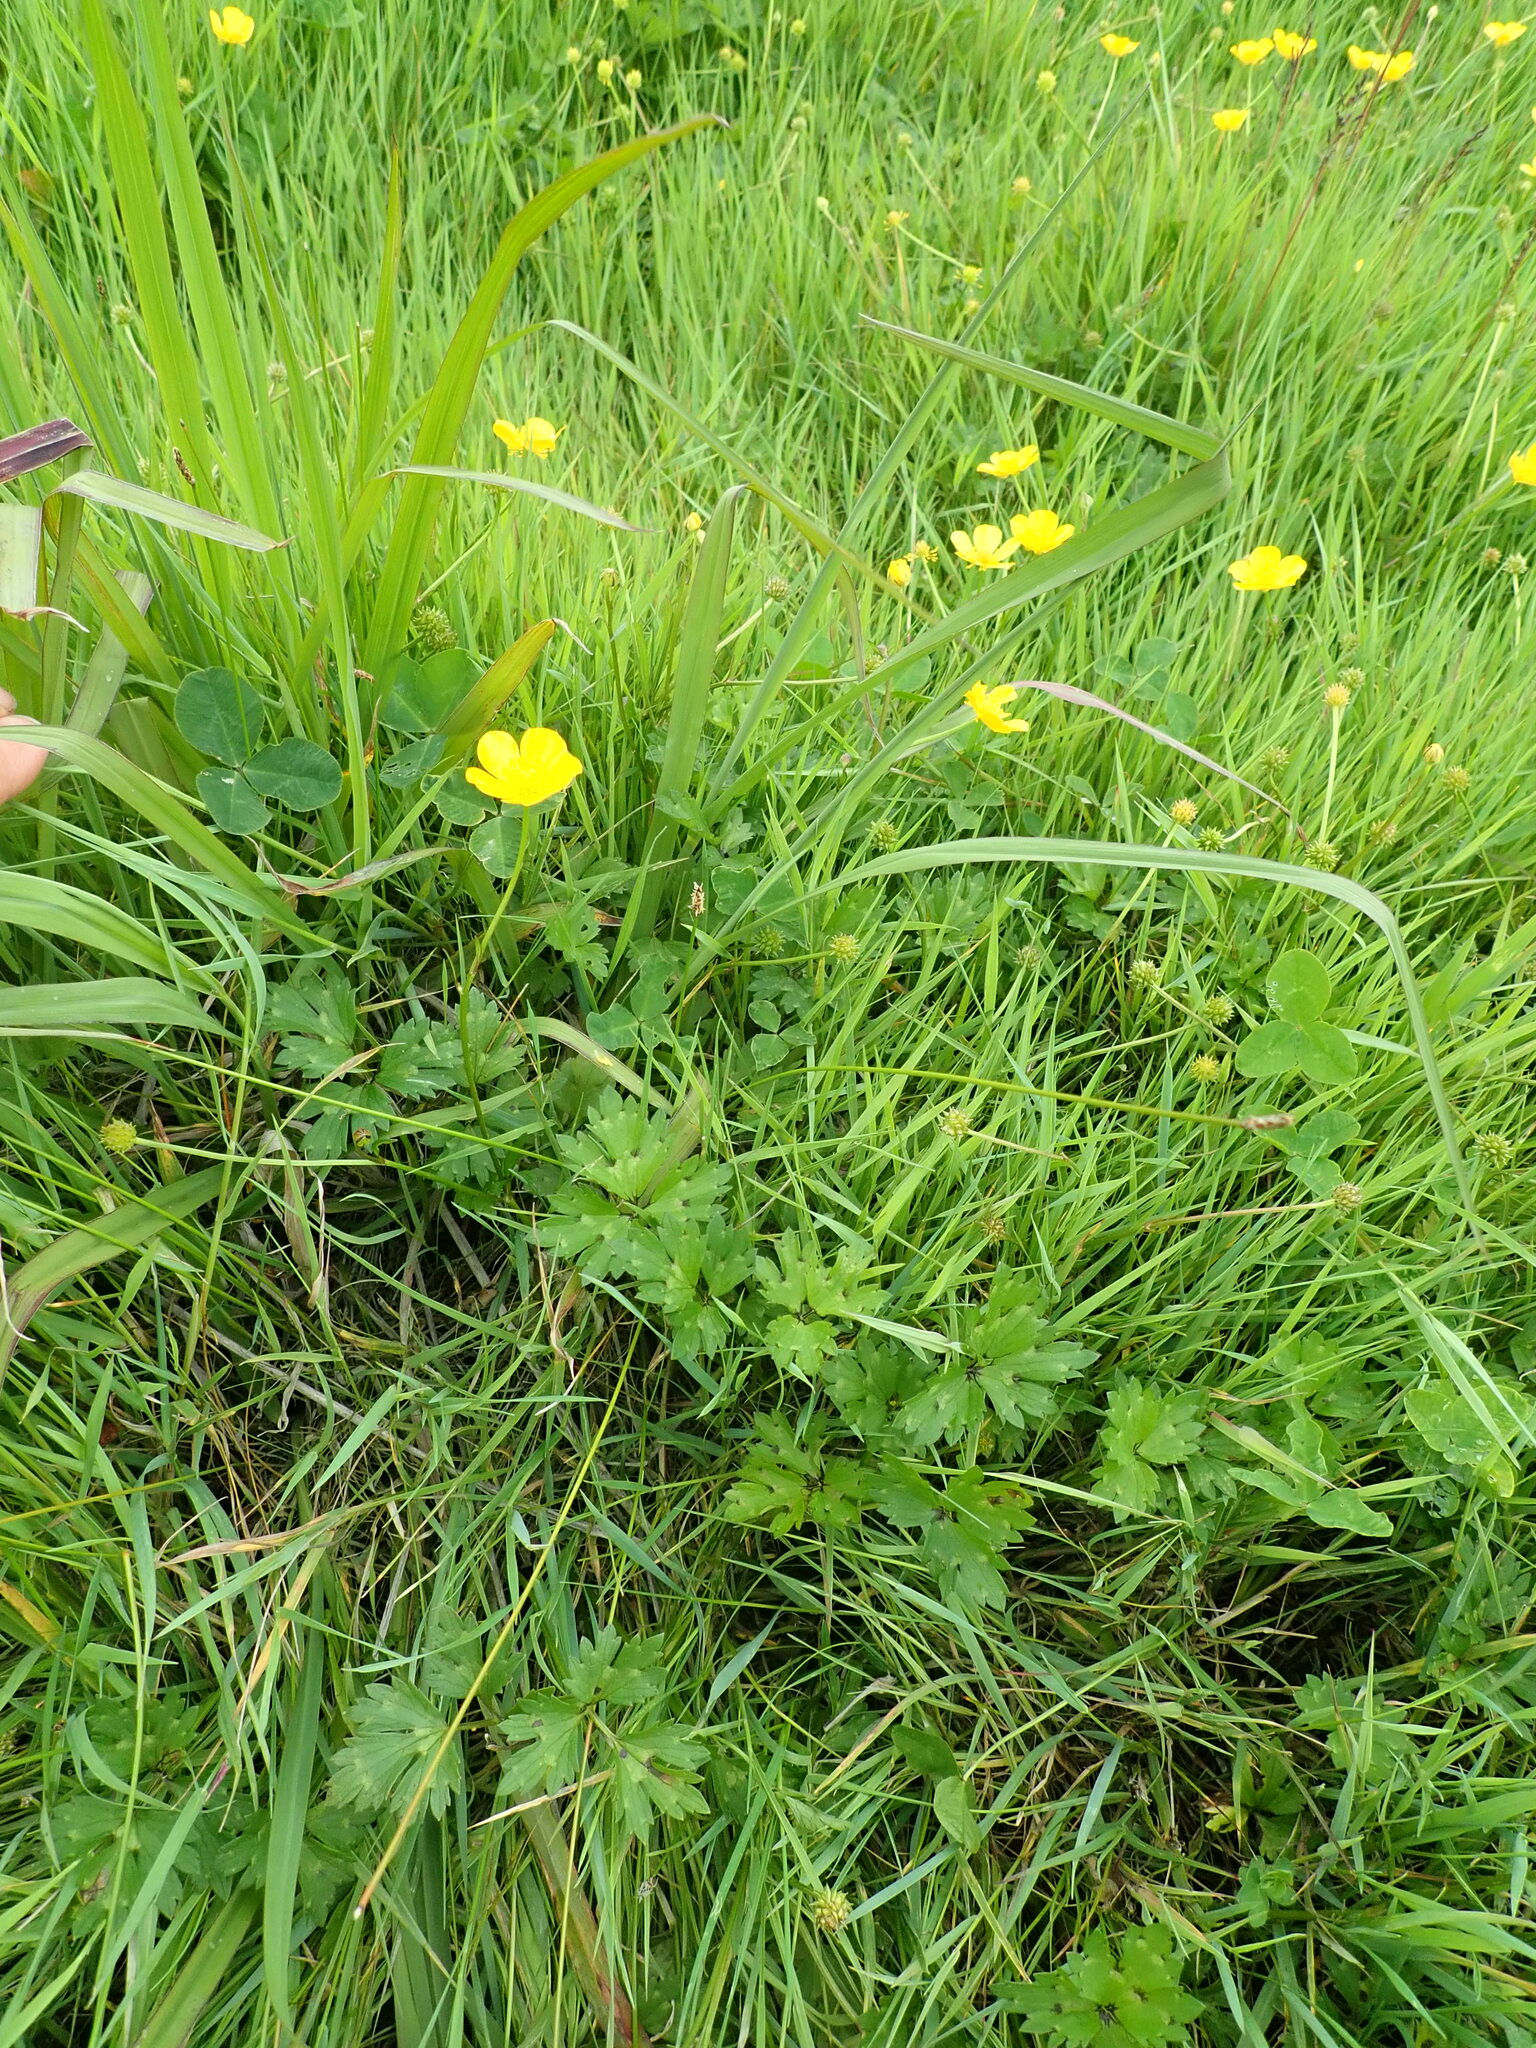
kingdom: Plantae
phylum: Tracheophyta
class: Magnoliopsida
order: Ranunculales
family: Ranunculaceae
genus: Ranunculus
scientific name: Ranunculus repens
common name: Creeping buttercup
